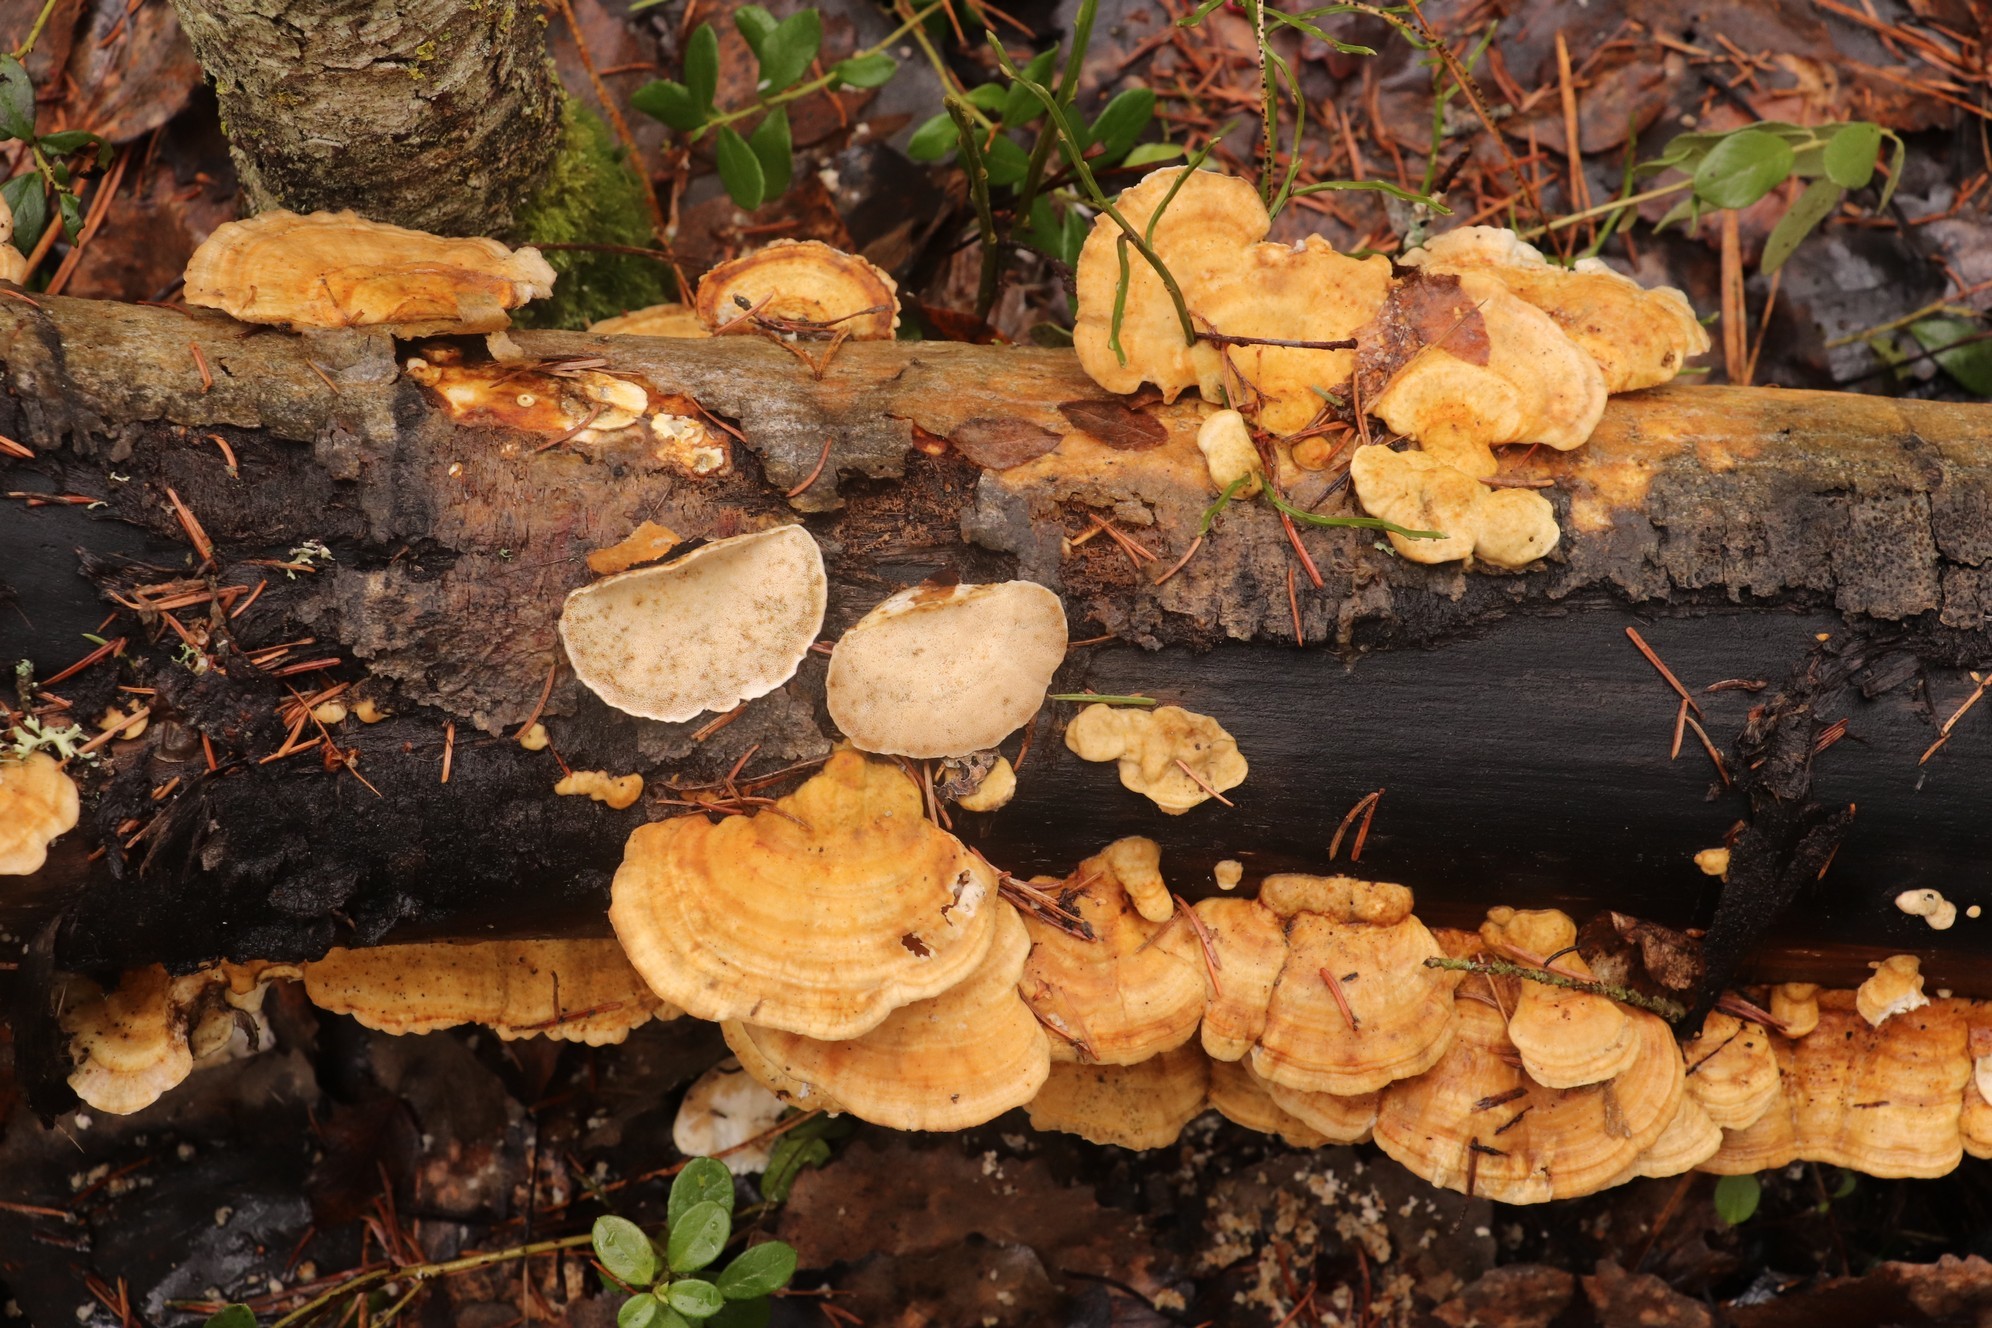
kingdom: Fungi
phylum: Basidiomycota
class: Agaricomycetes
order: Polyporales
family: Polyporaceae
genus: Trametes
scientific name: Trametes ochracea
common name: Ochre bracket
